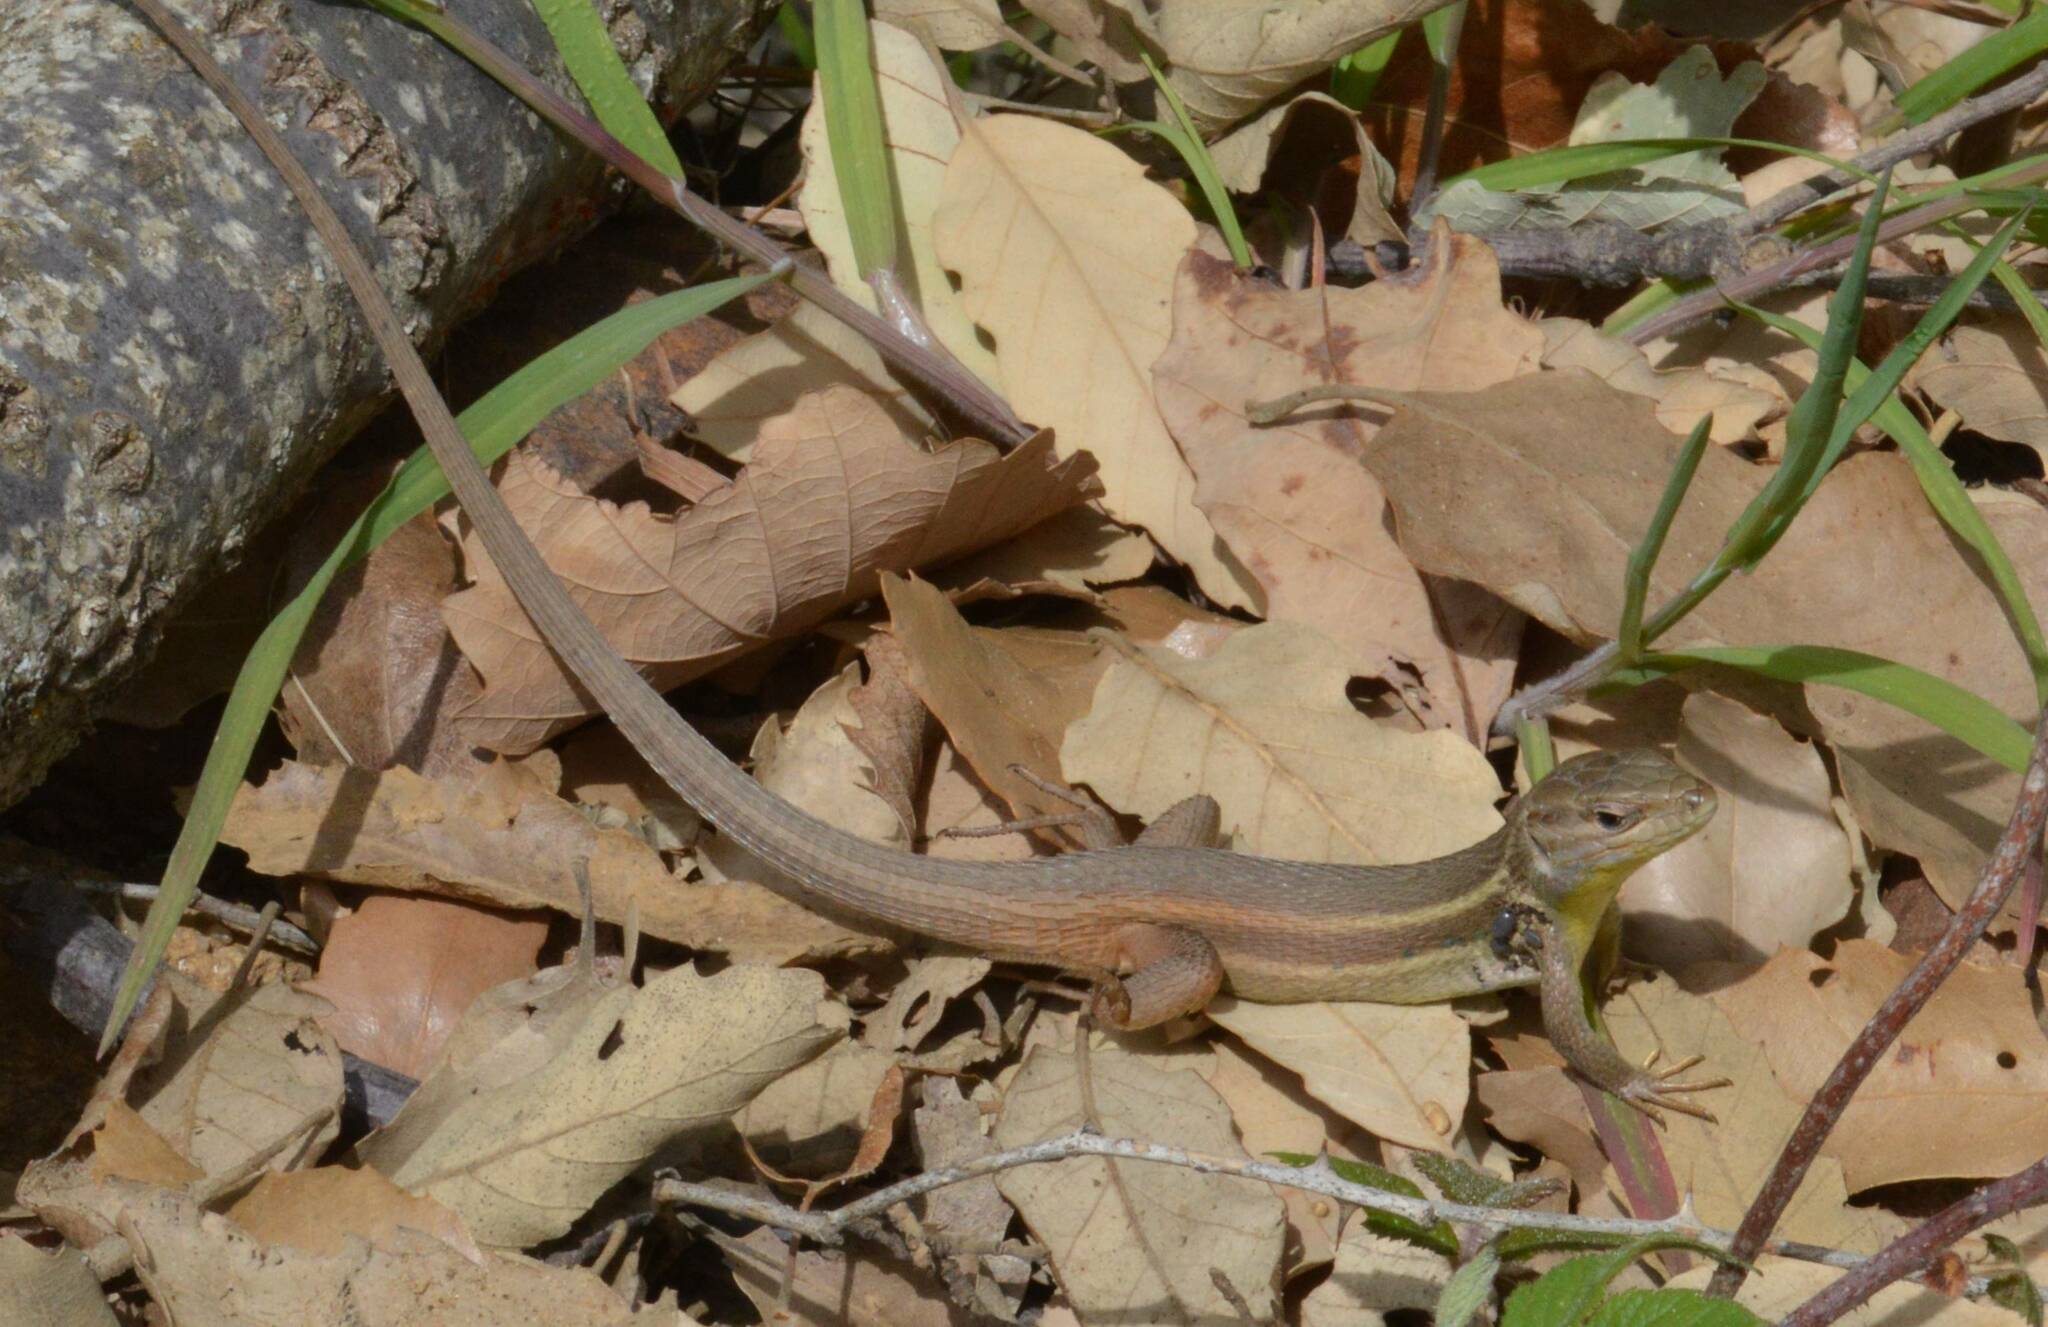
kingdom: Animalia
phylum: Chordata
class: Squamata
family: Lacertidae
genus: Psammodromus
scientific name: Psammodromus algirus
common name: Algerian psammodromus
